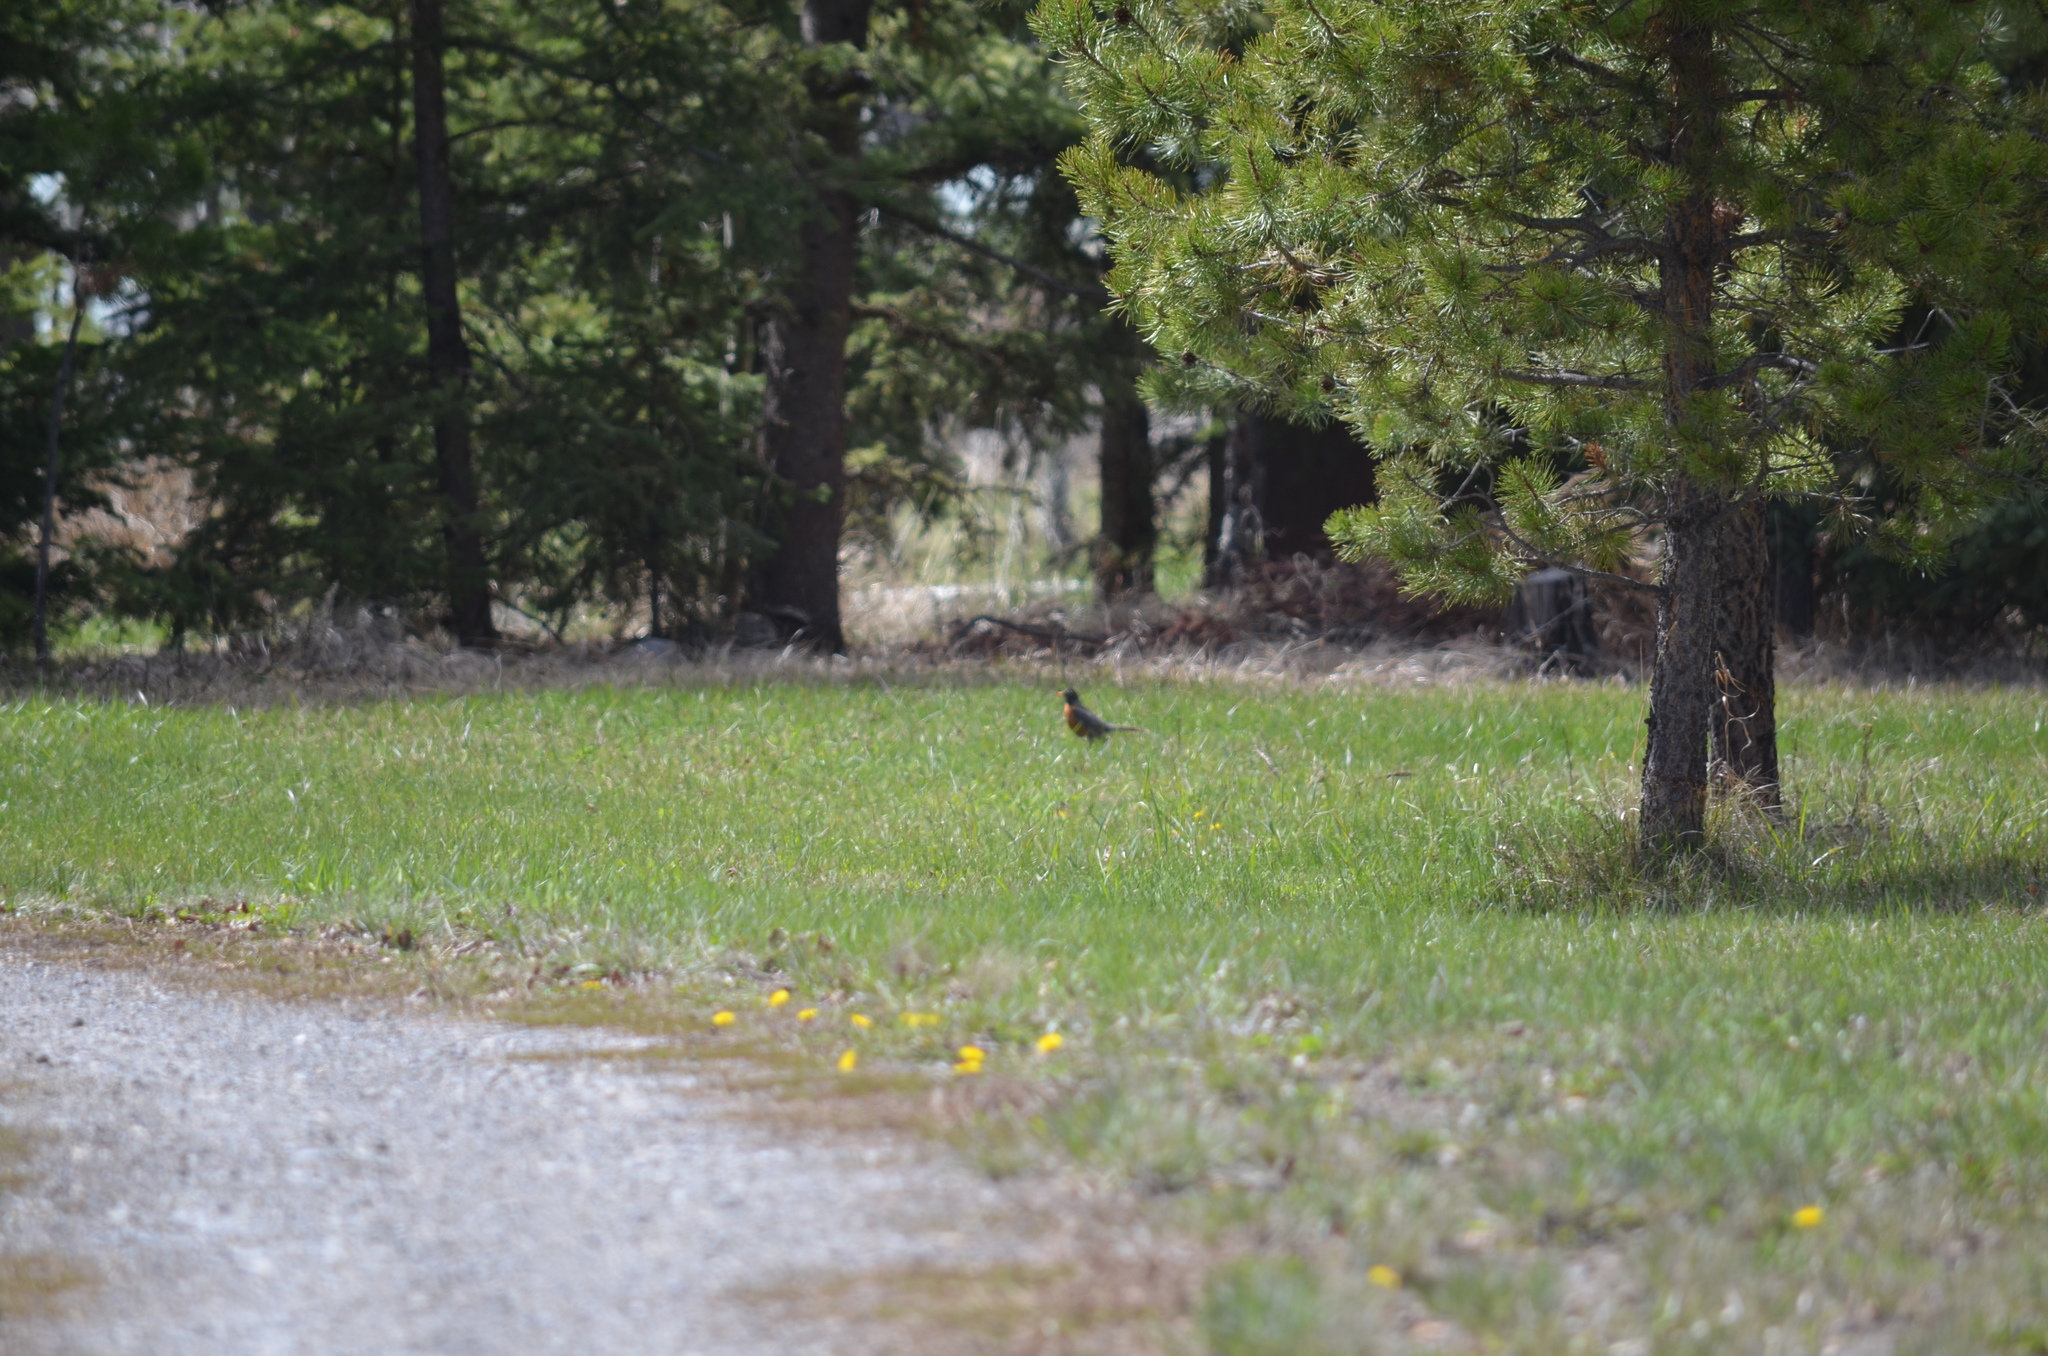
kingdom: Animalia
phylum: Chordata
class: Aves
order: Passeriformes
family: Turdidae
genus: Turdus
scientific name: Turdus migratorius
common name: American robin
